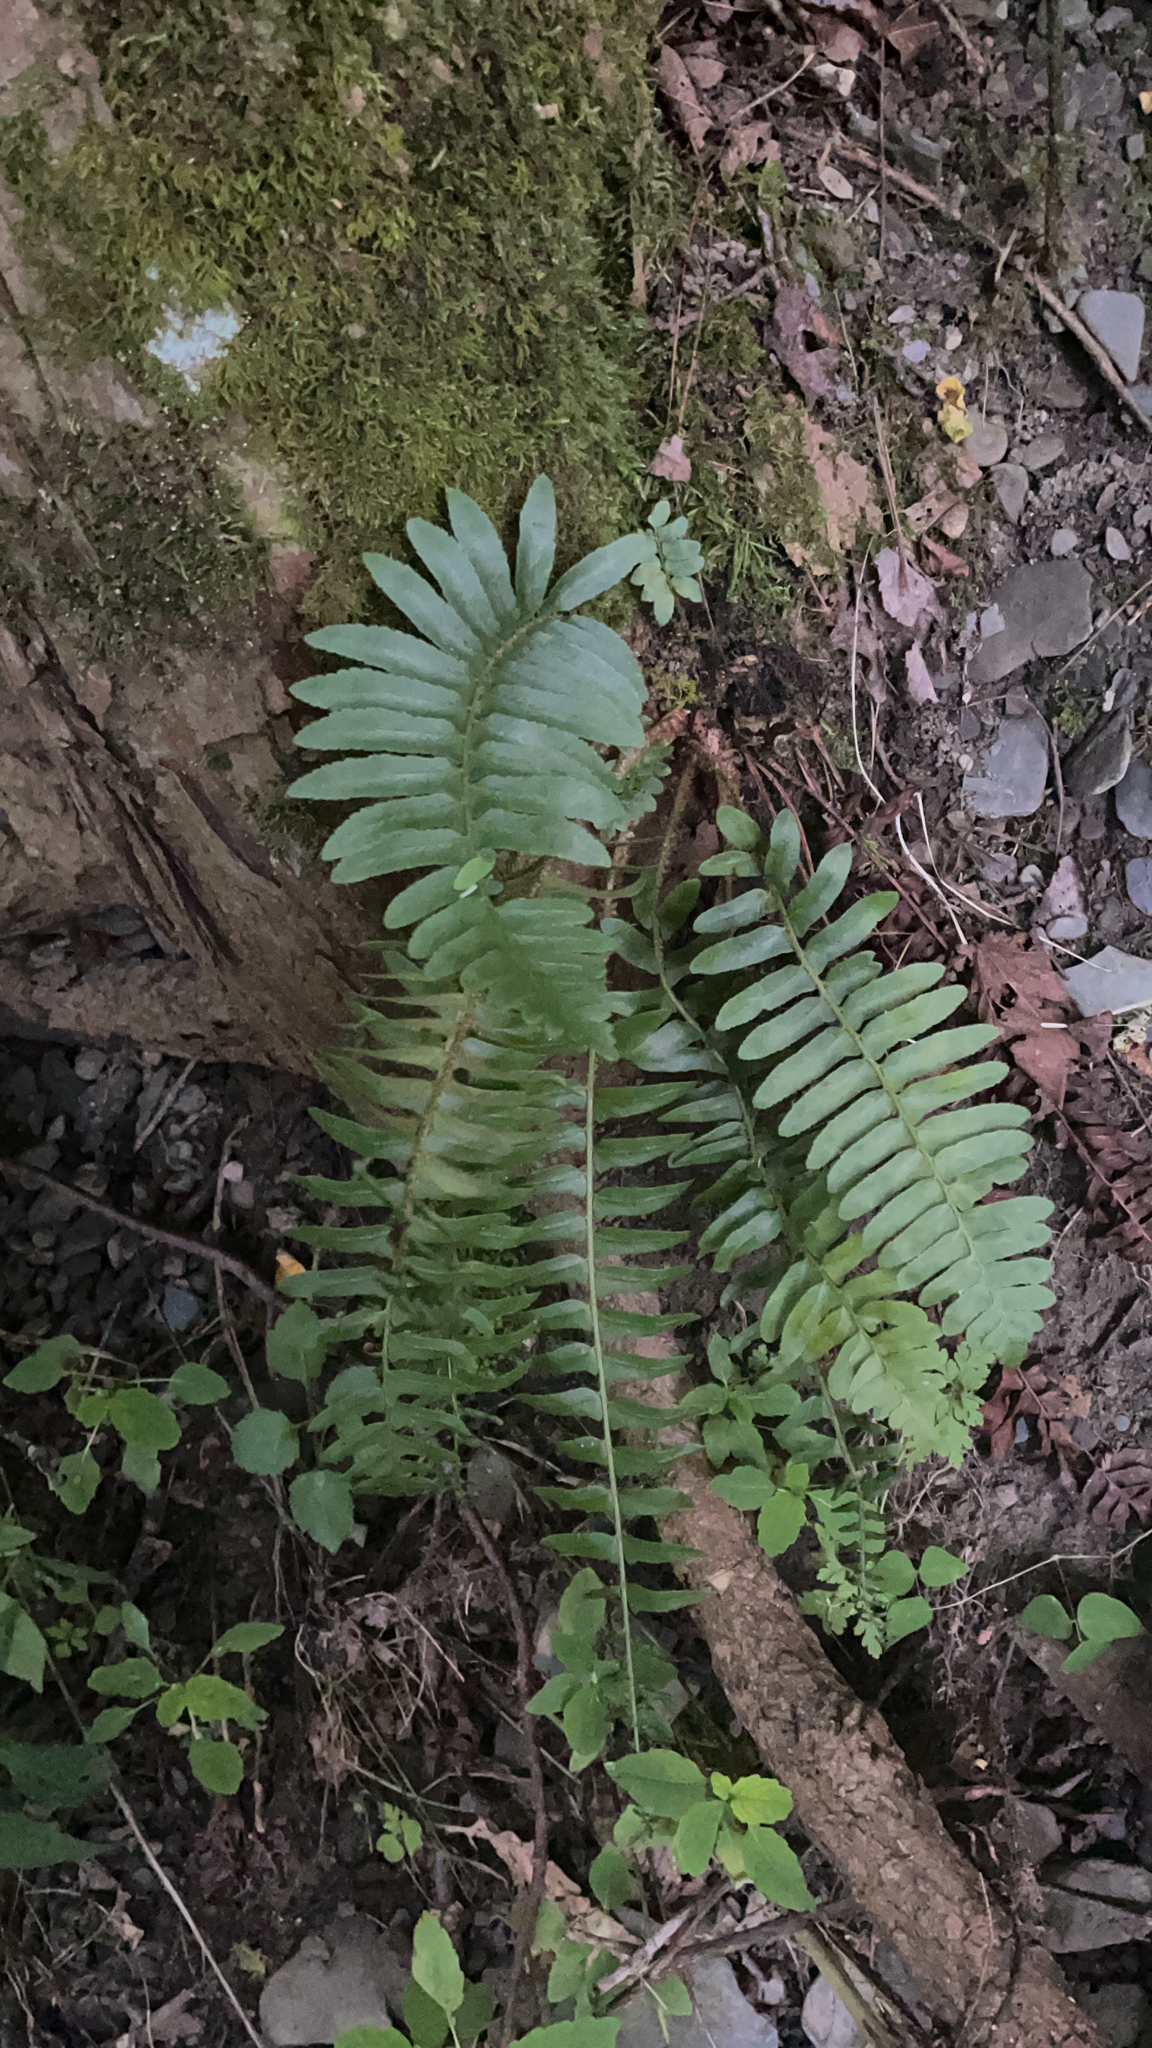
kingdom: Plantae
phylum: Tracheophyta
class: Polypodiopsida
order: Polypodiales
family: Dryopteridaceae
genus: Polystichum
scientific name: Polystichum acrostichoides
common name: Christmas fern
